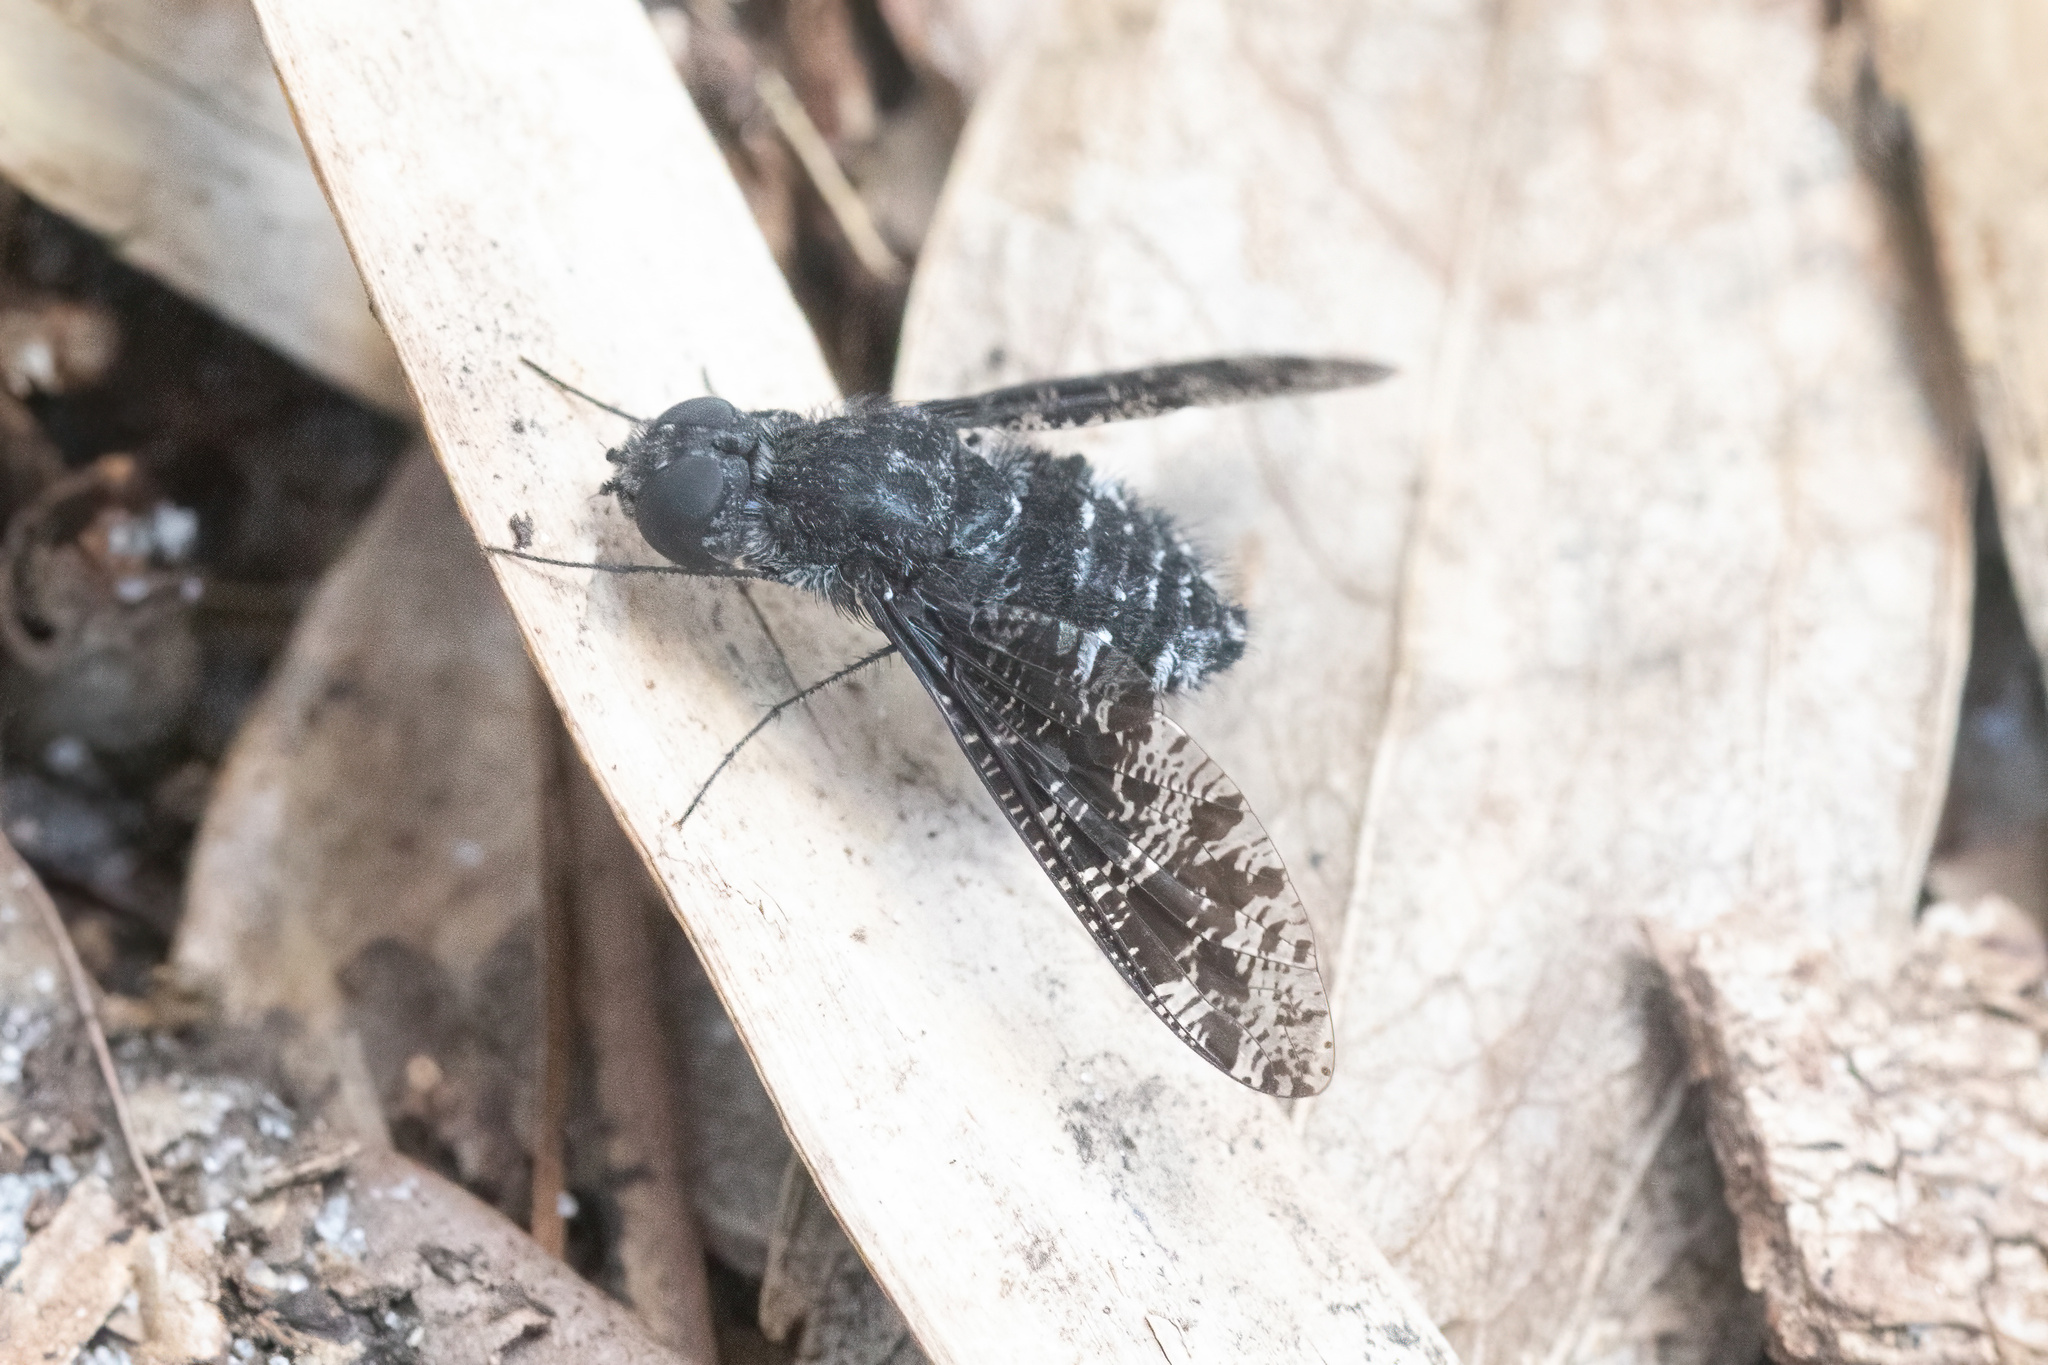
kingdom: Animalia
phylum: Arthropoda
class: Insecta
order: Diptera
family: Bombyliidae
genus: Anthrax
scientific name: Anthrax striatipennis
